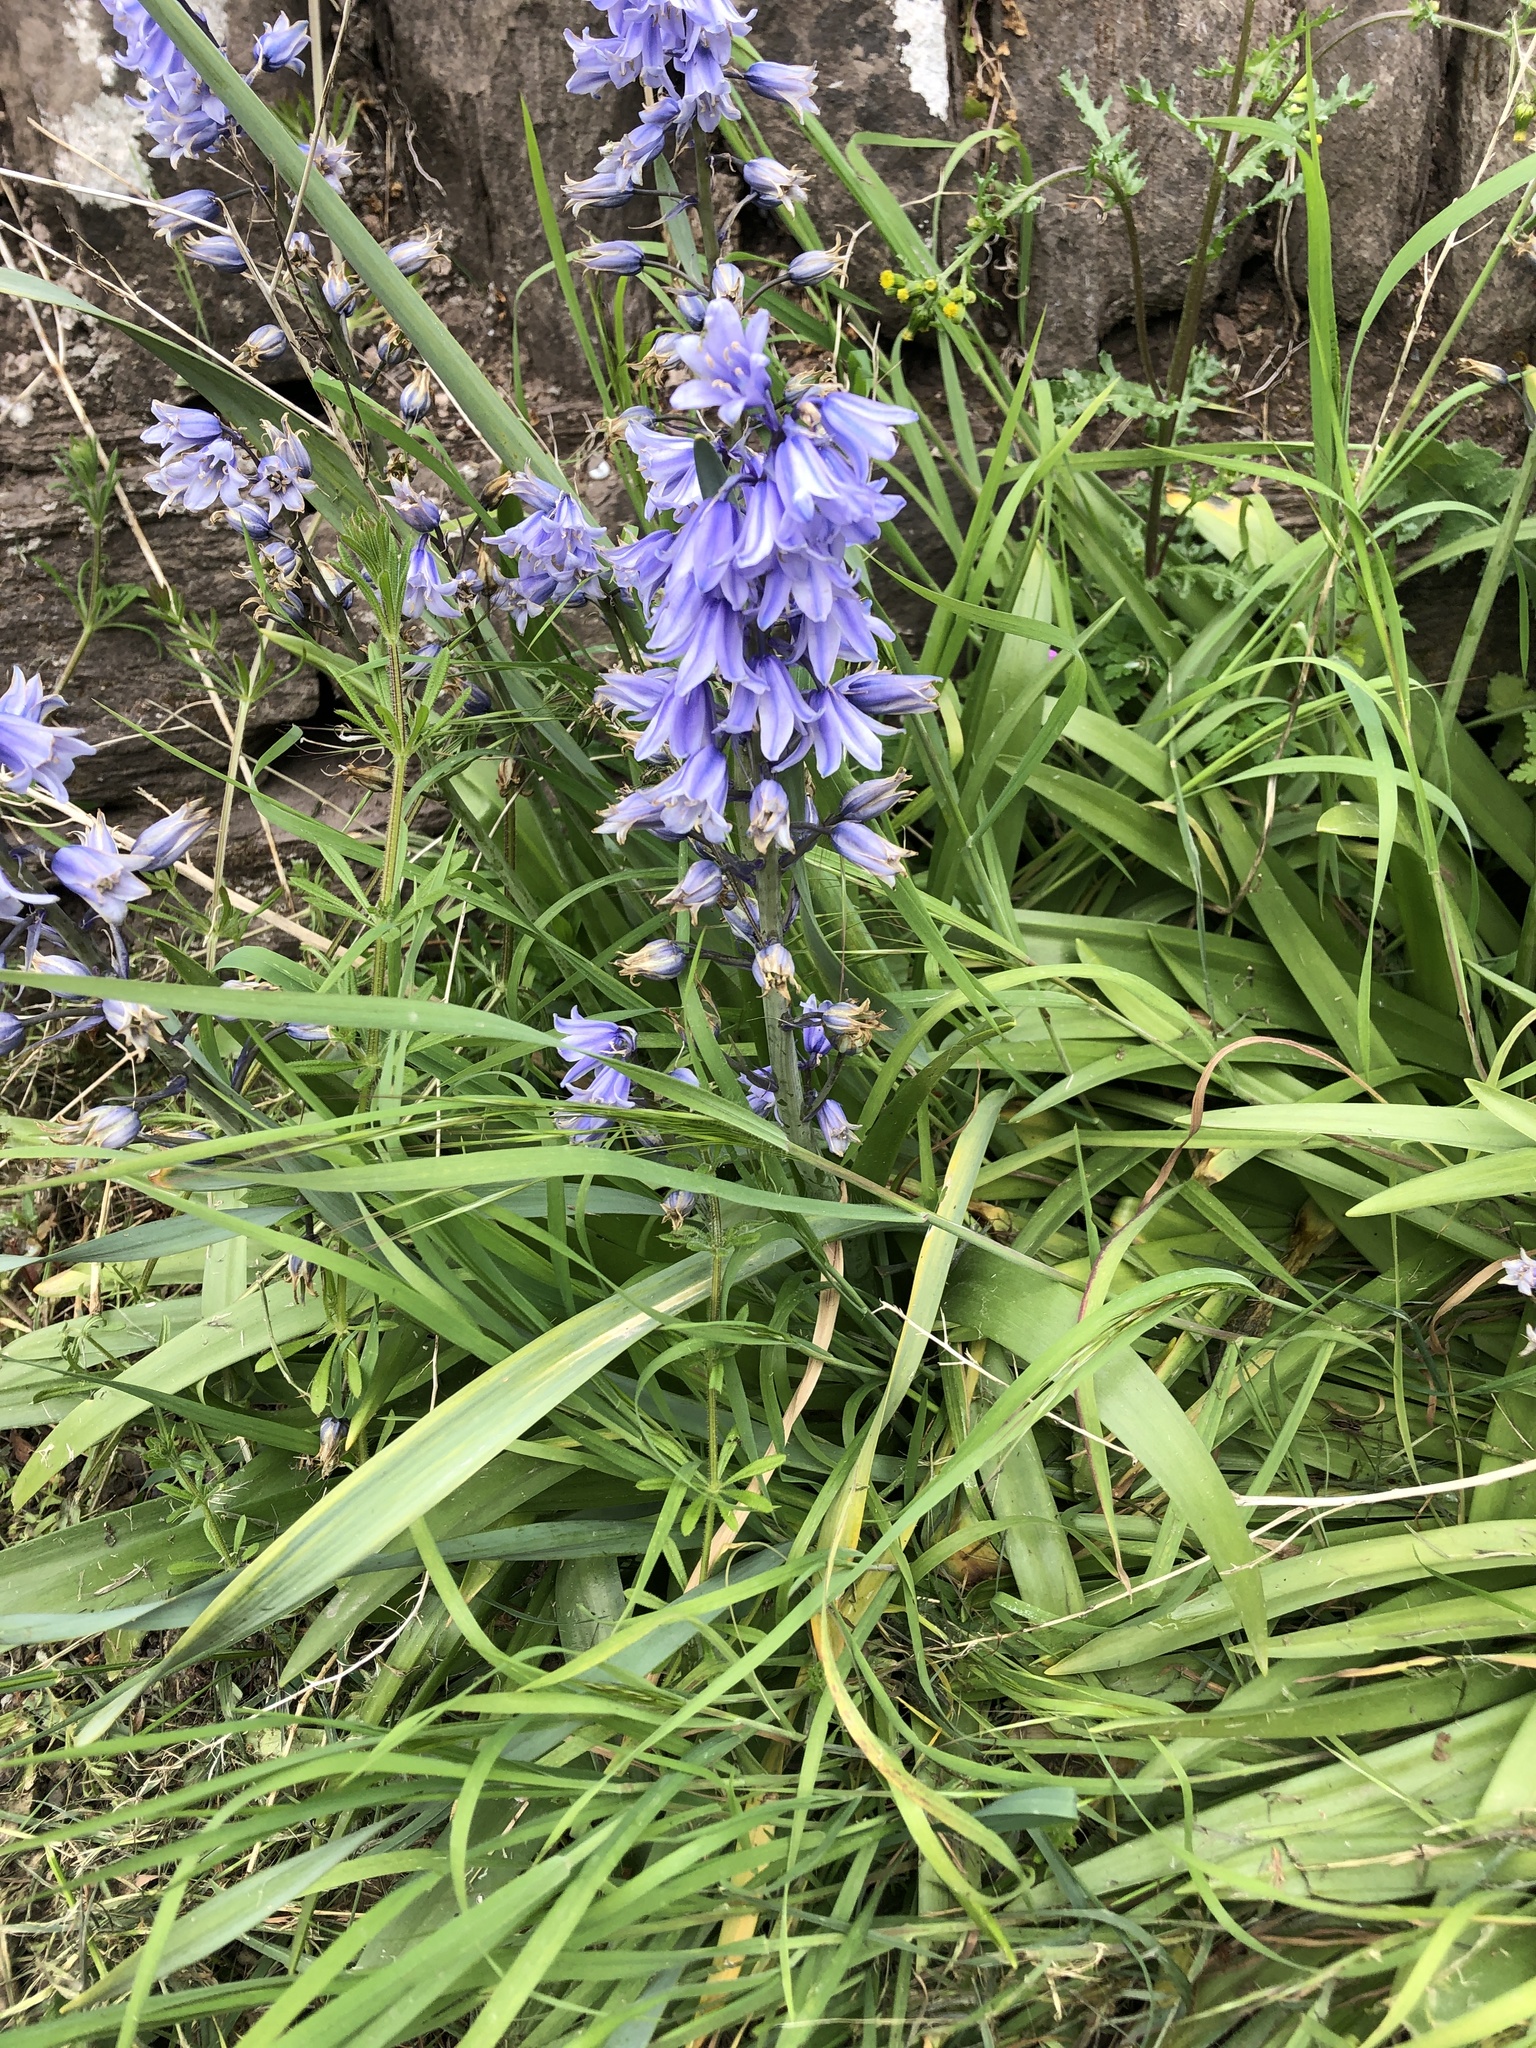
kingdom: Plantae
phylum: Tracheophyta
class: Liliopsida
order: Asparagales
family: Asparagaceae
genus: Hyacinthoides
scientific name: Hyacinthoides hispanica
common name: Spanish bluebell
